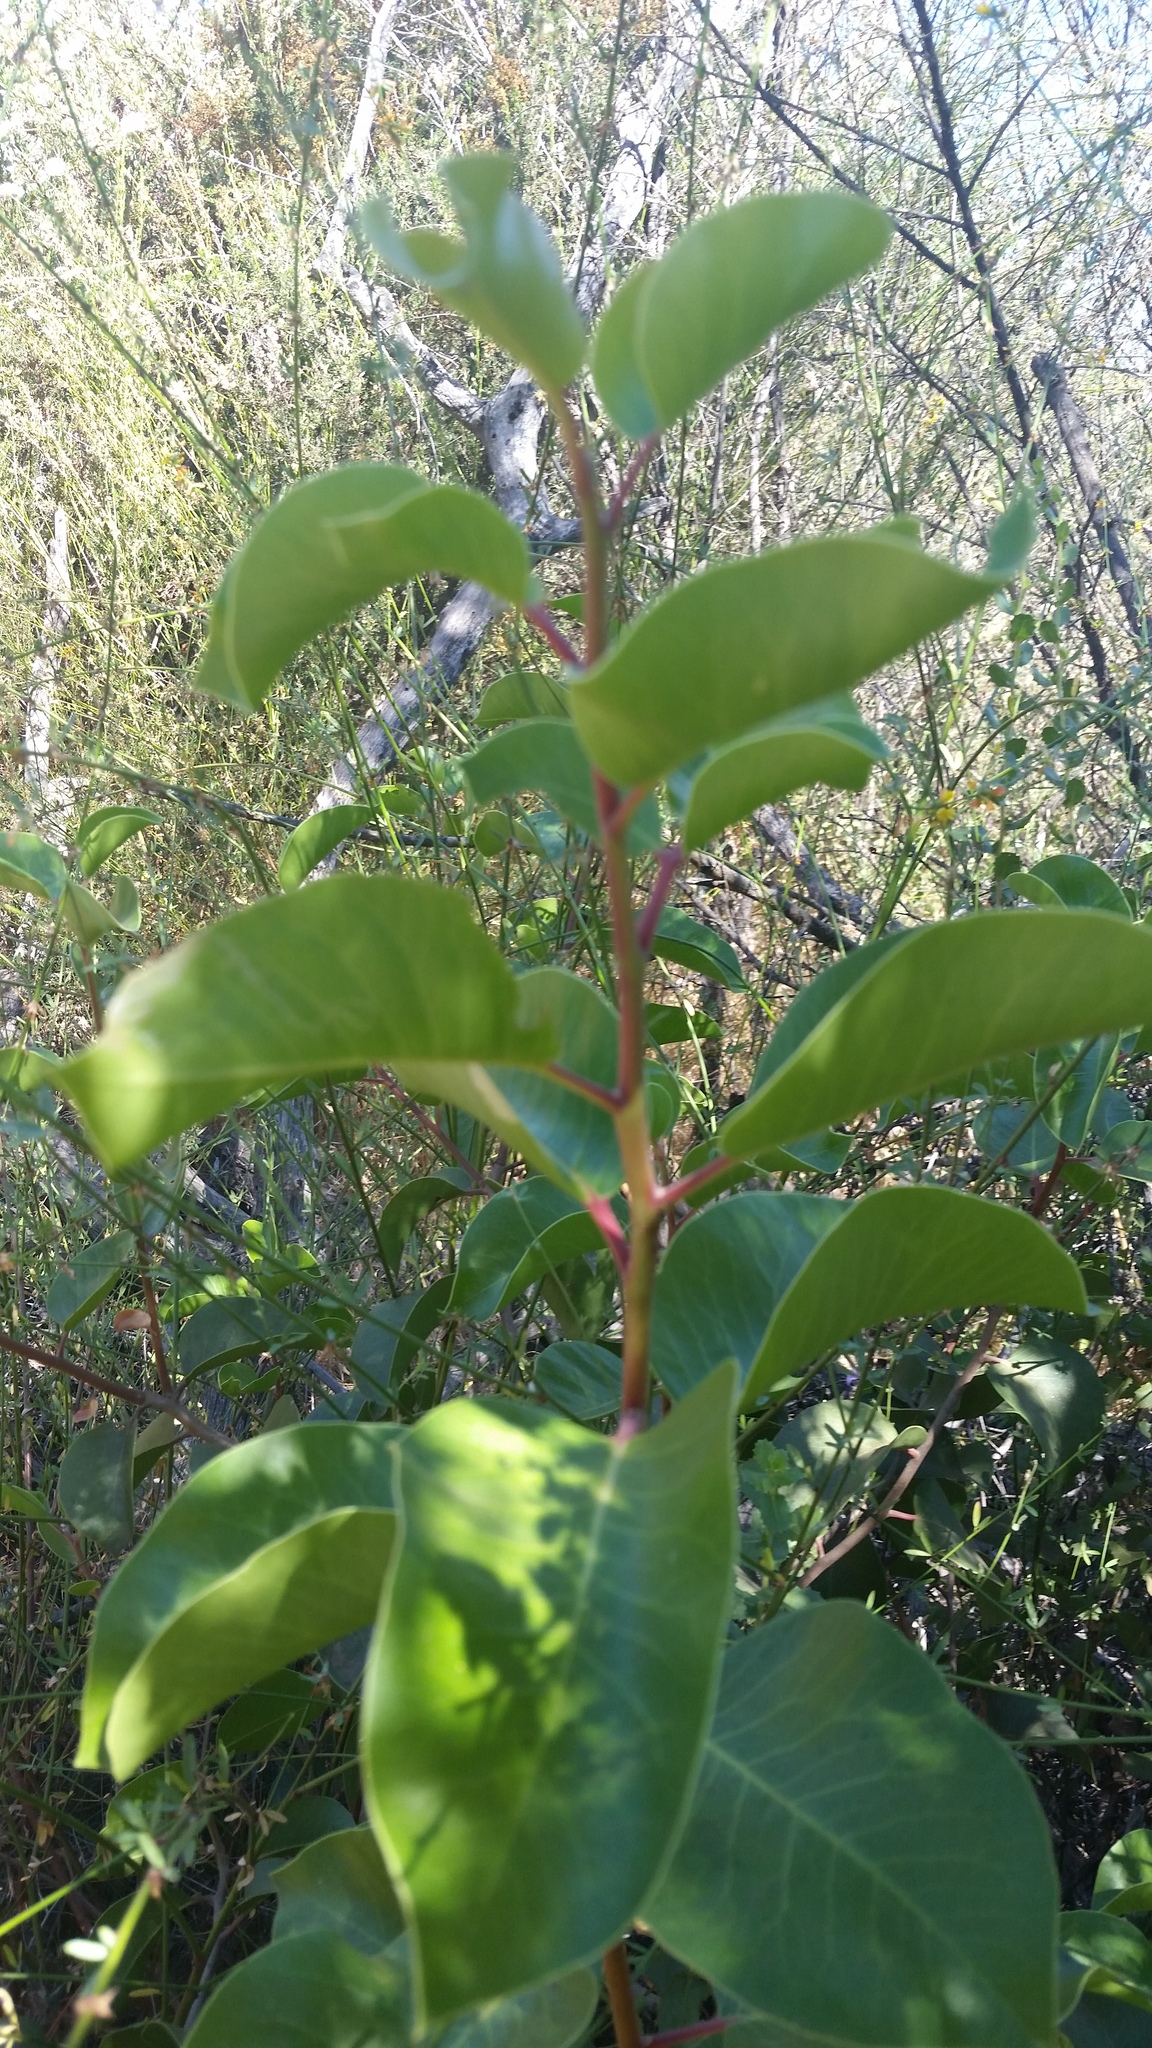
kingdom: Plantae
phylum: Tracheophyta
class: Magnoliopsida
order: Sapindales
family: Anacardiaceae
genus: Rhus
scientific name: Rhus ovata
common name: Sugar sumac
